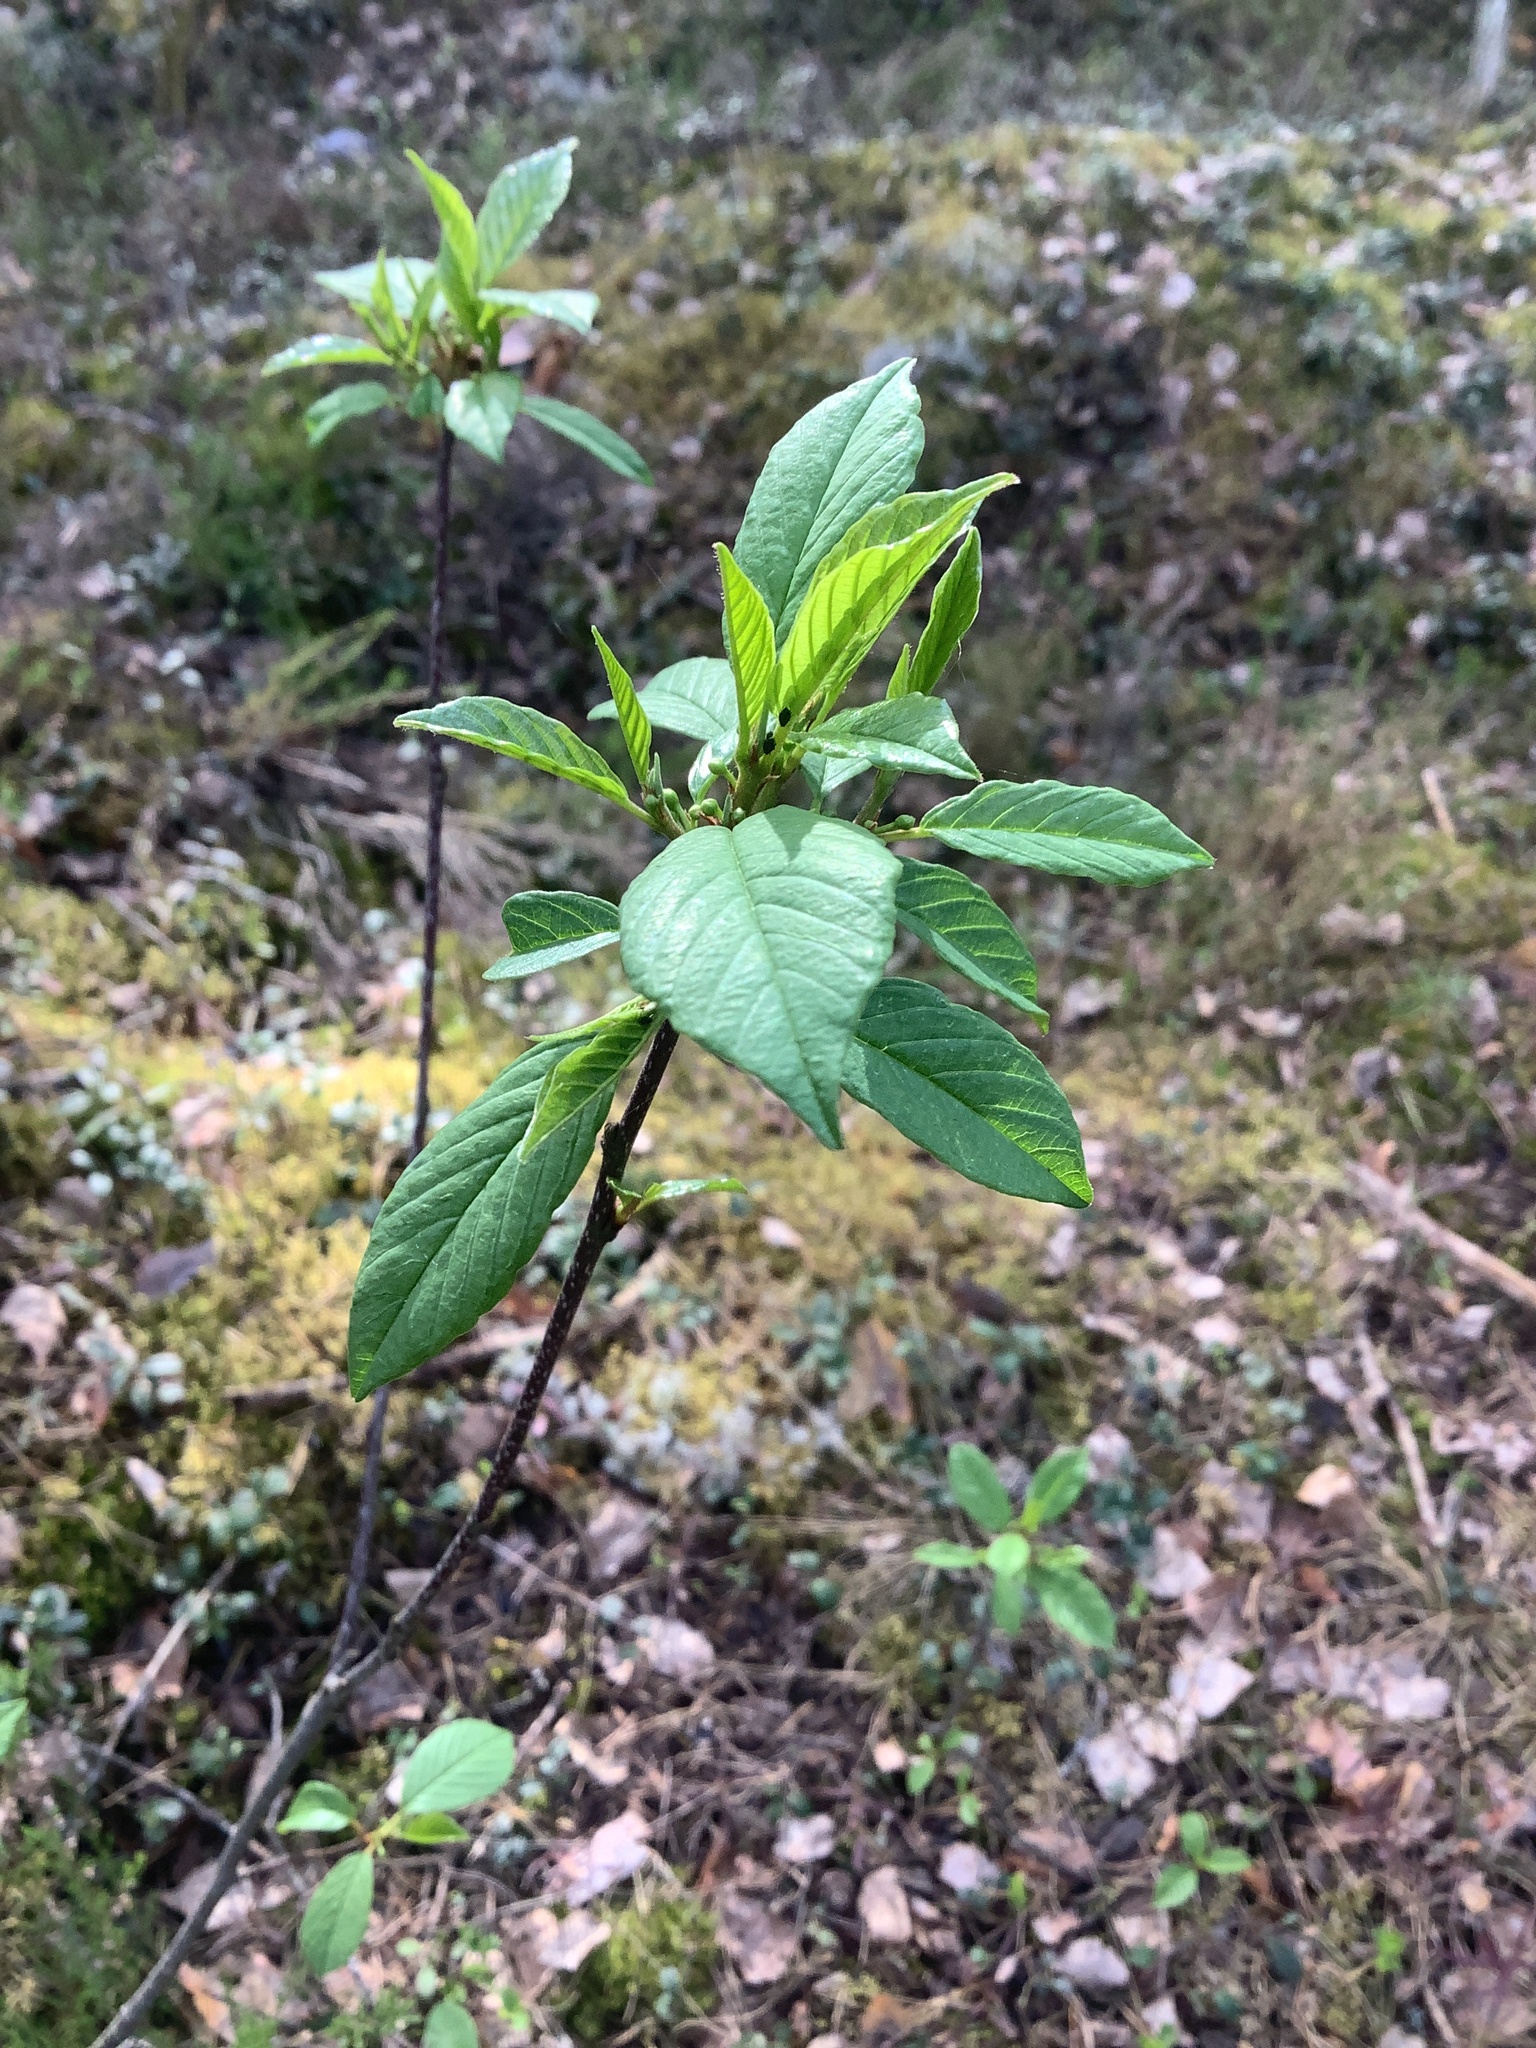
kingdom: Plantae
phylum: Tracheophyta
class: Magnoliopsida
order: Rosales
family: Rhamnaceae
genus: Frangula
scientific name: Frangula alnus
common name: Alder buckthorn
